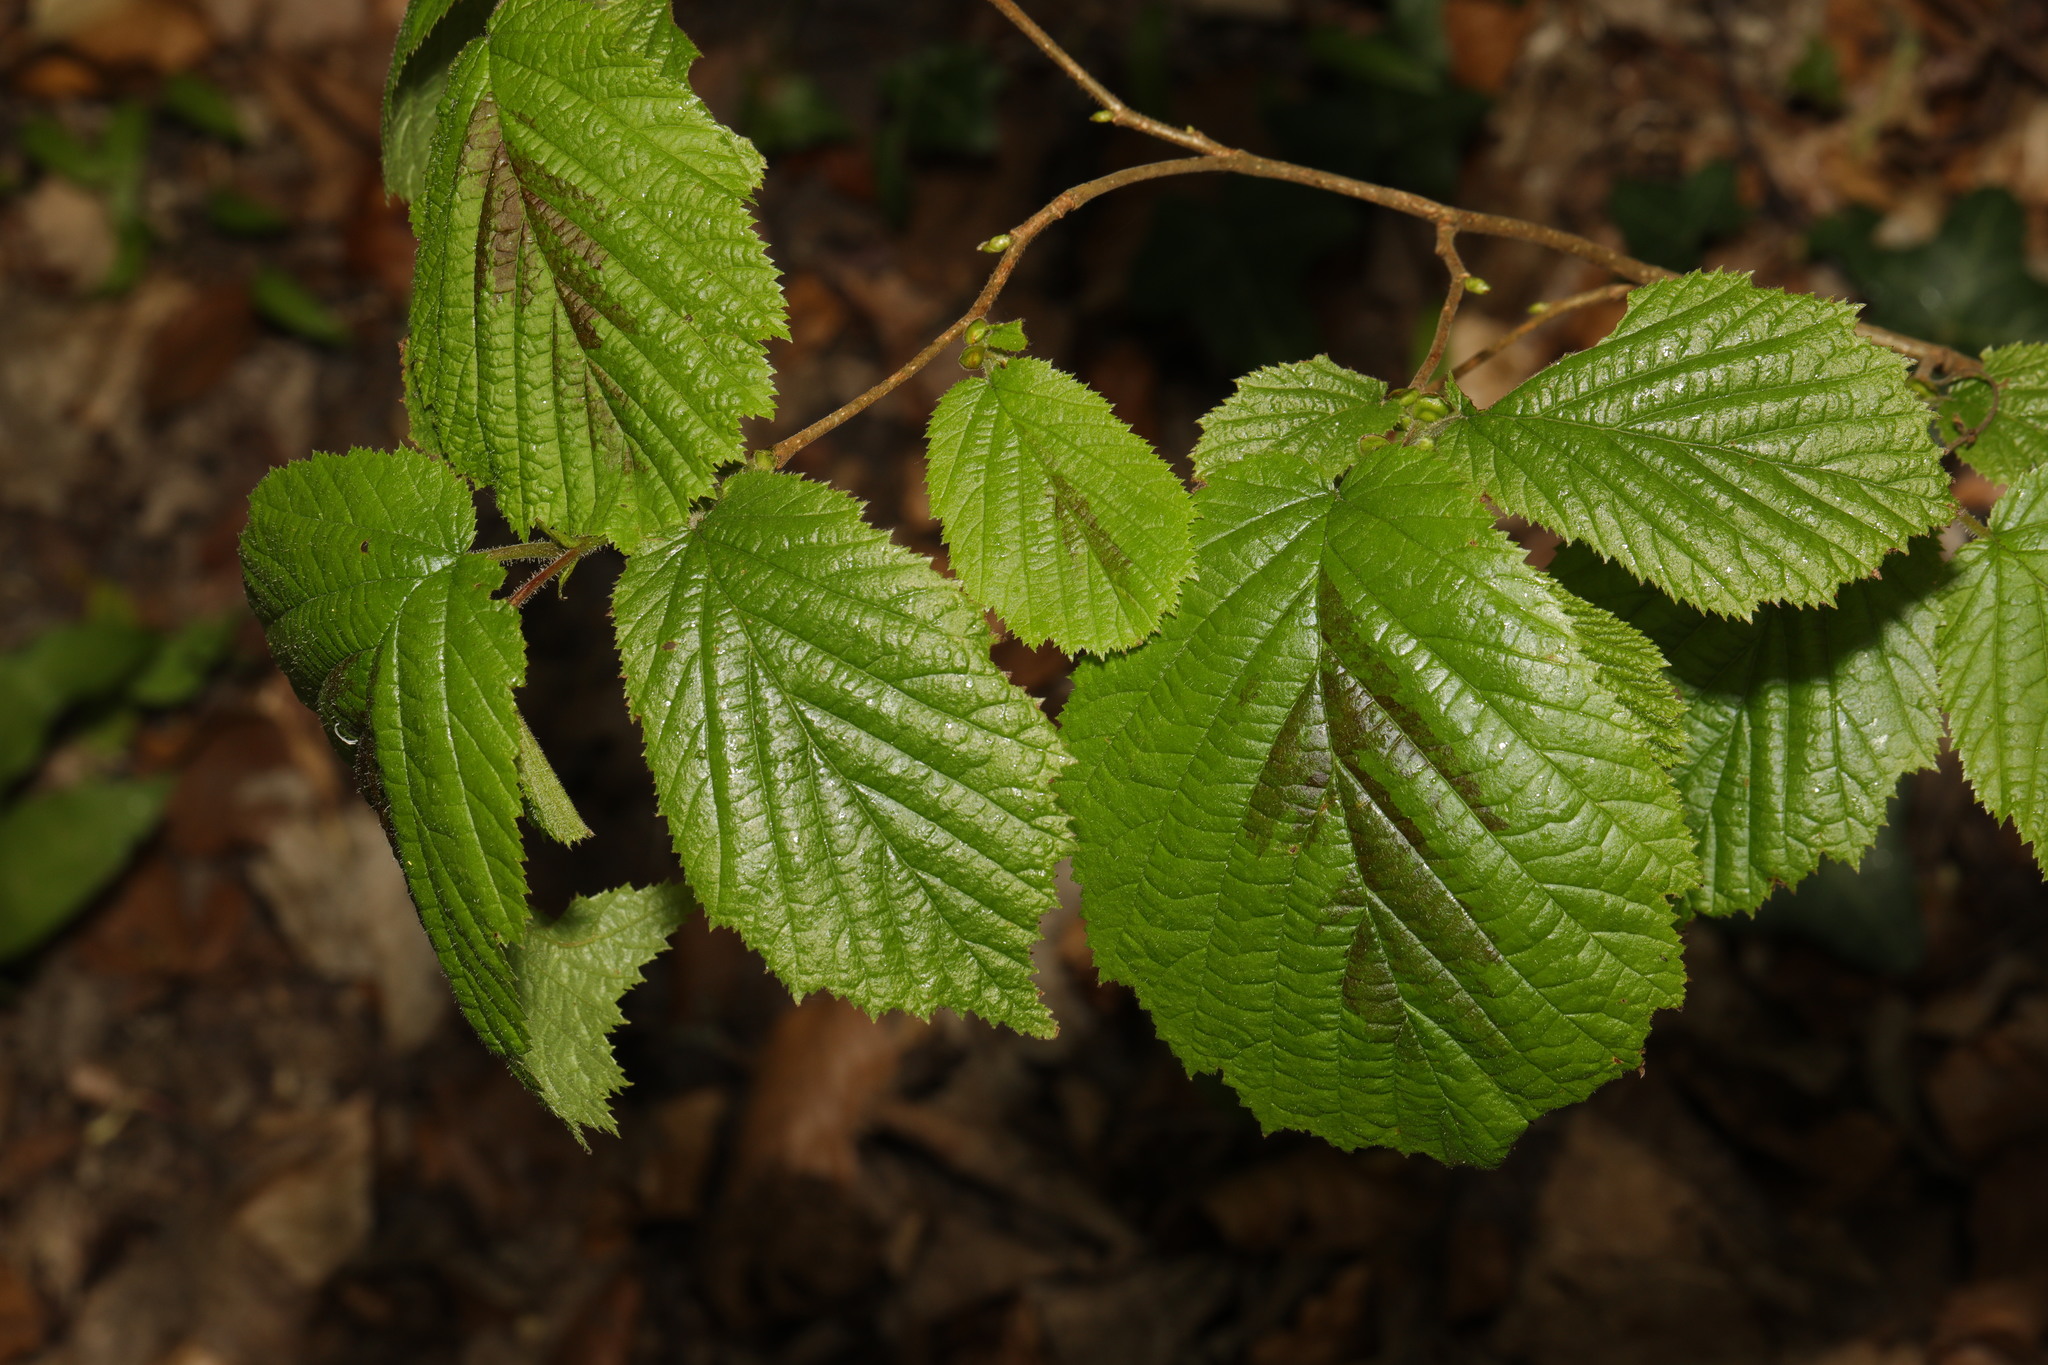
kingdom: Plantae
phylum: Tracheophyta
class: Magnoliopsida
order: Fagales
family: Betulaceae
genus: Corylus
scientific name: Corylus avellana
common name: European hazel
